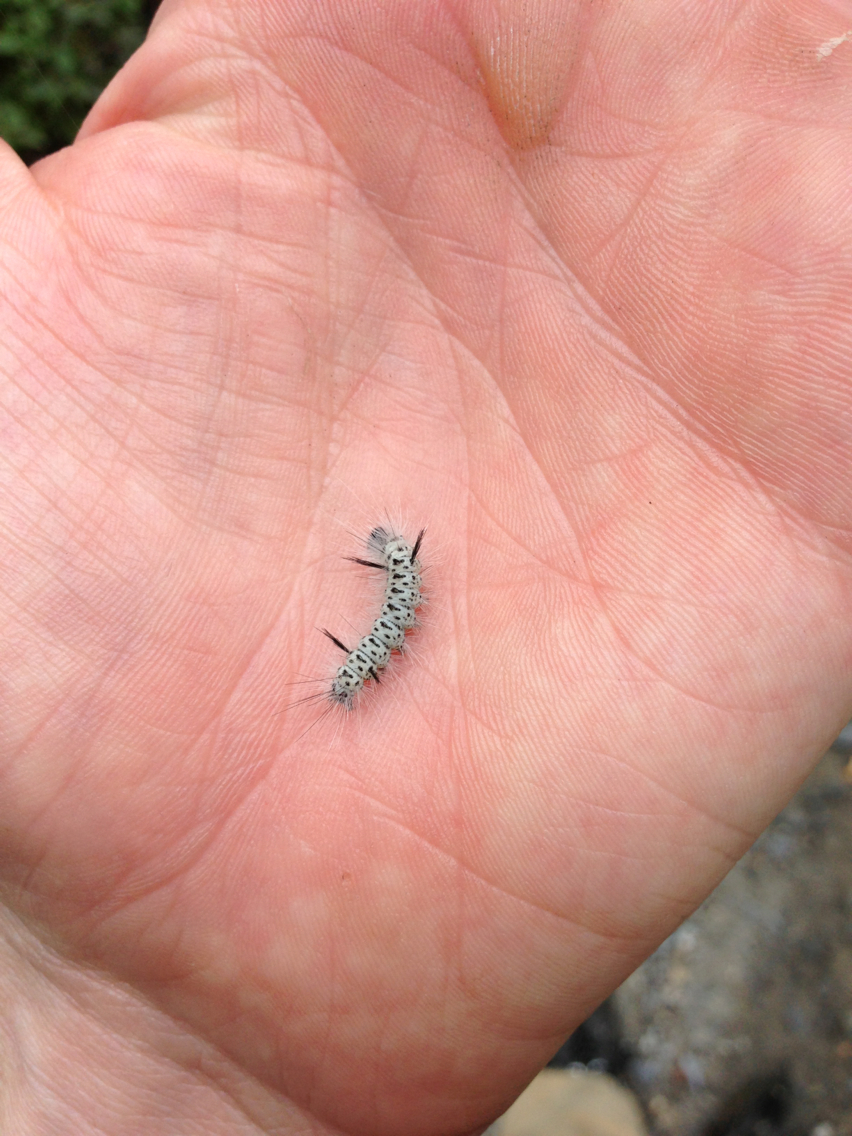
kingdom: Animalia
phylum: Arthropoda
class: Insecta
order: Lepidoptera
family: Erebidae
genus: Lophocampa
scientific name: Lophocampa caryae
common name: Hickory tussock moth
